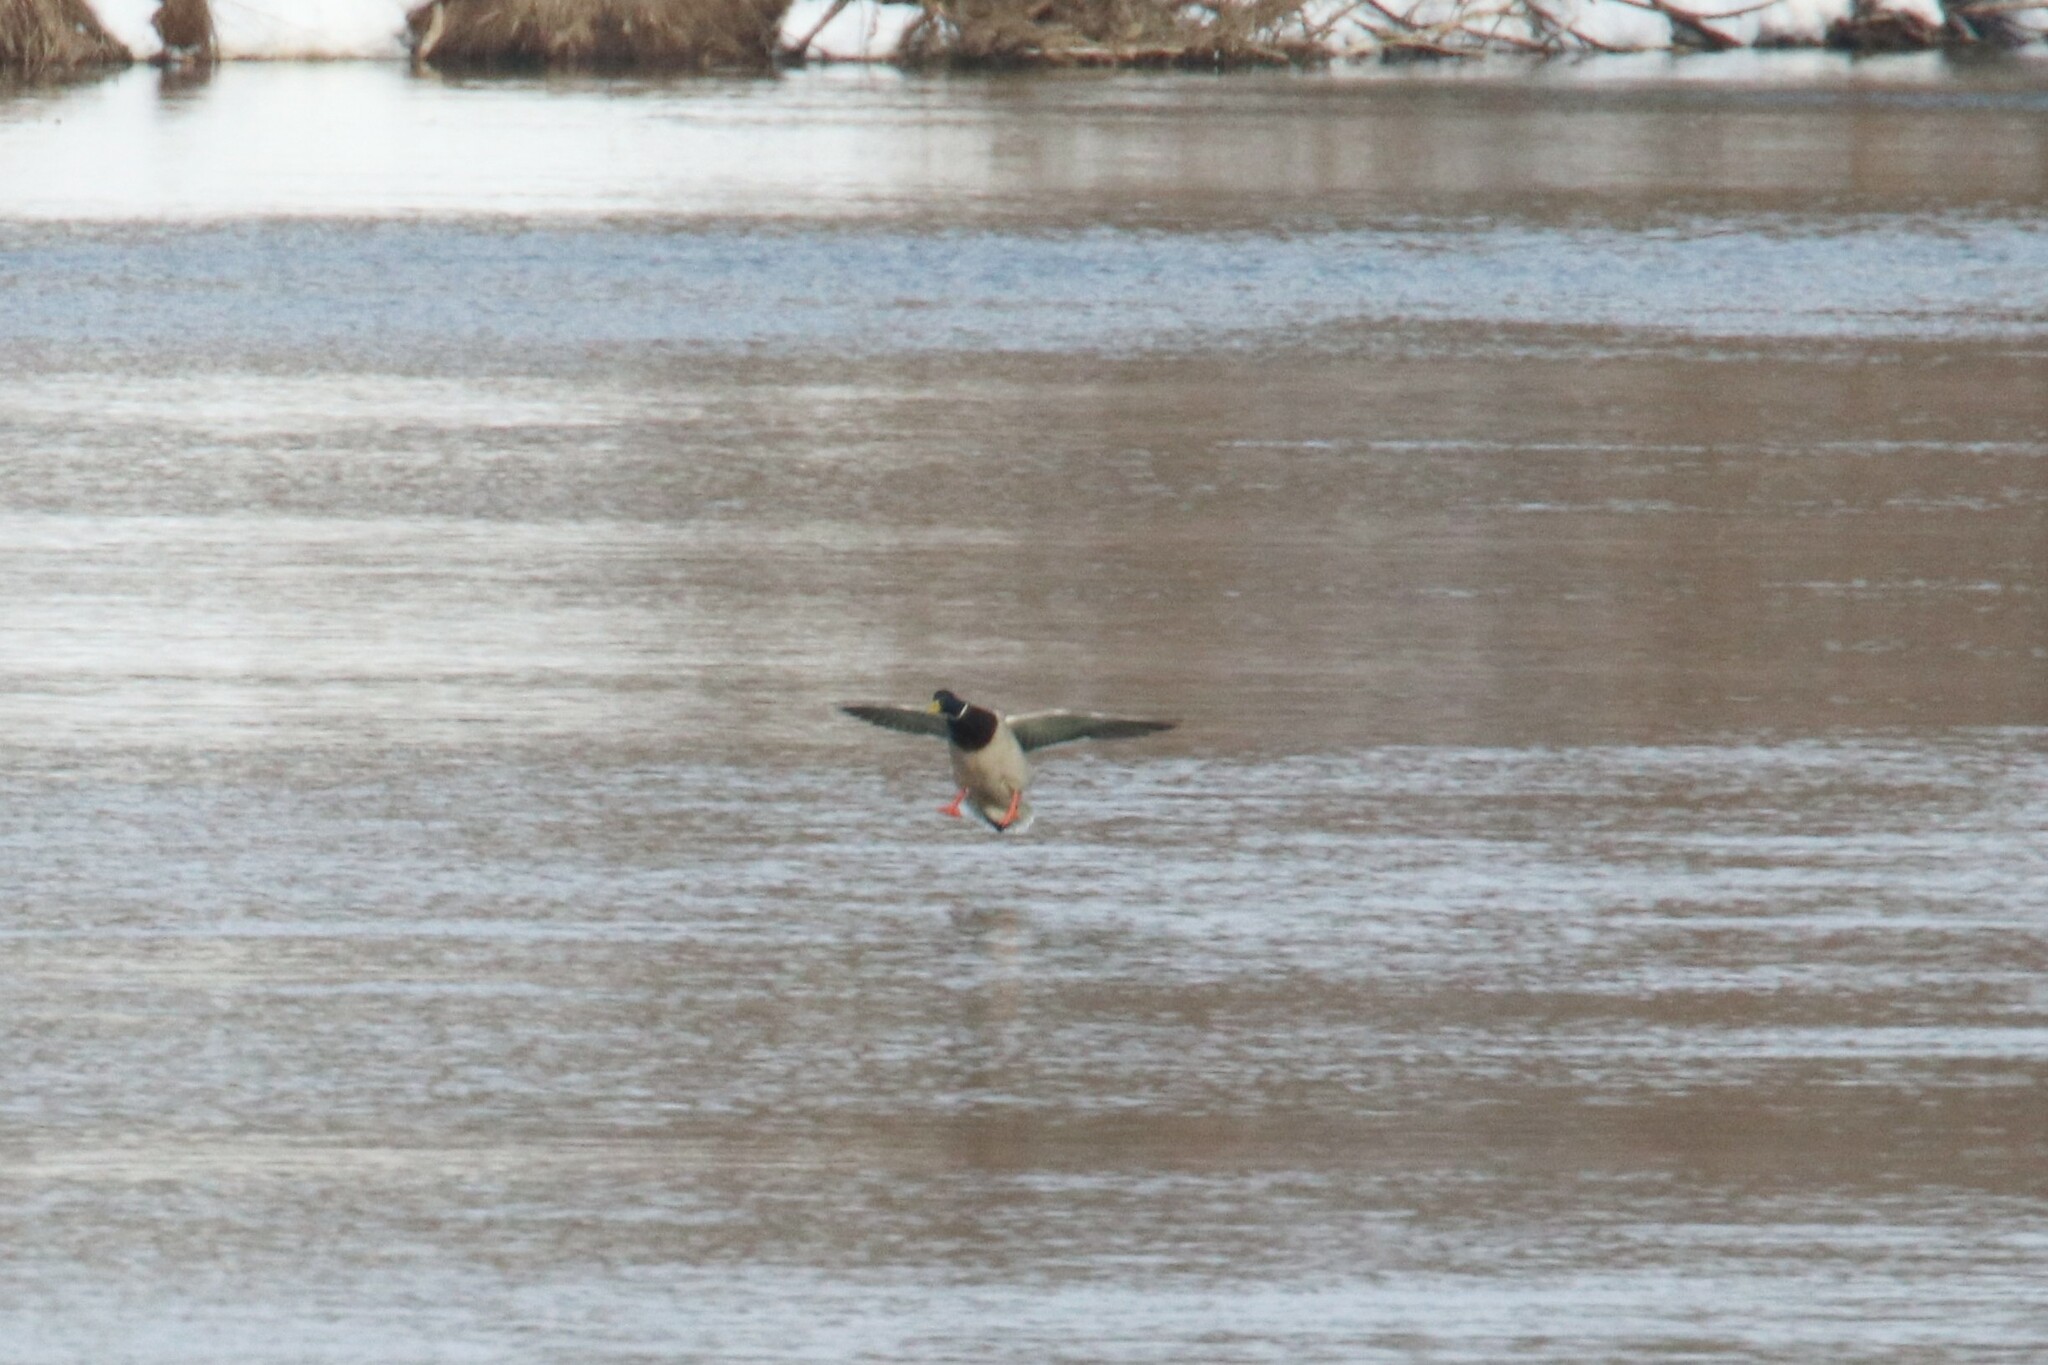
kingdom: Animalia
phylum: Chordata
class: Aves
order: Anseriformes
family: Anatidae
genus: Anas
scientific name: Anas platyrhynchos
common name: Mallard
